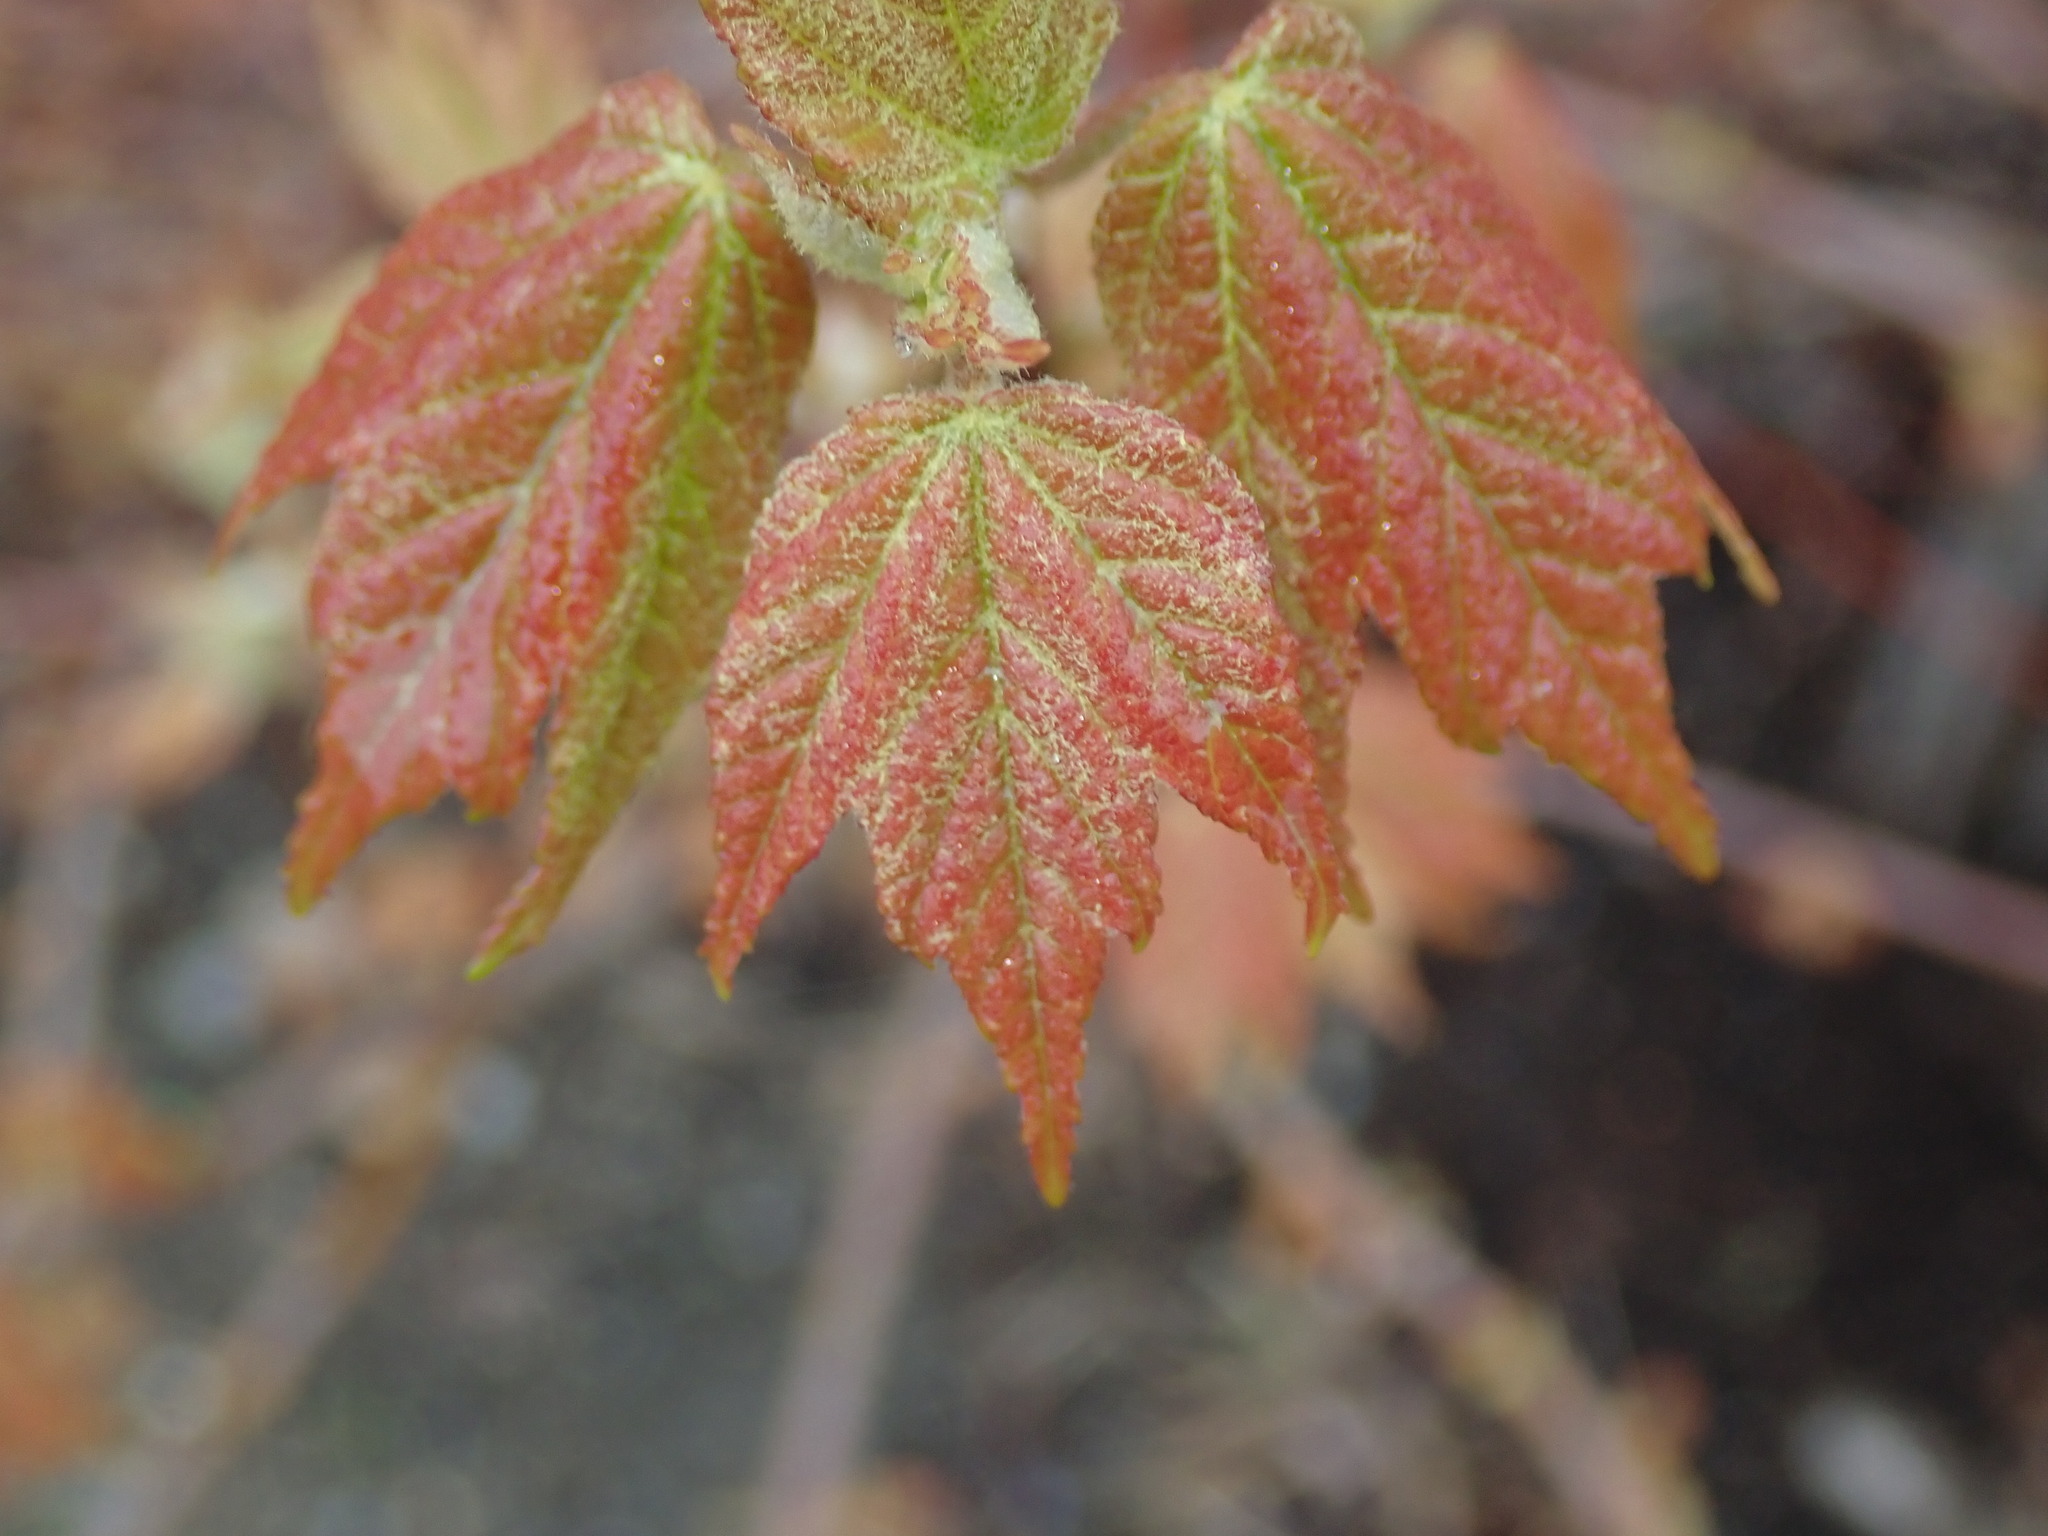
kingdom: Plantae
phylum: Tracheophyta
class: Magnoliopsida
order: Sapindales
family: Sapindaceae
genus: Acer
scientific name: Acer rubrum
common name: Red maple
